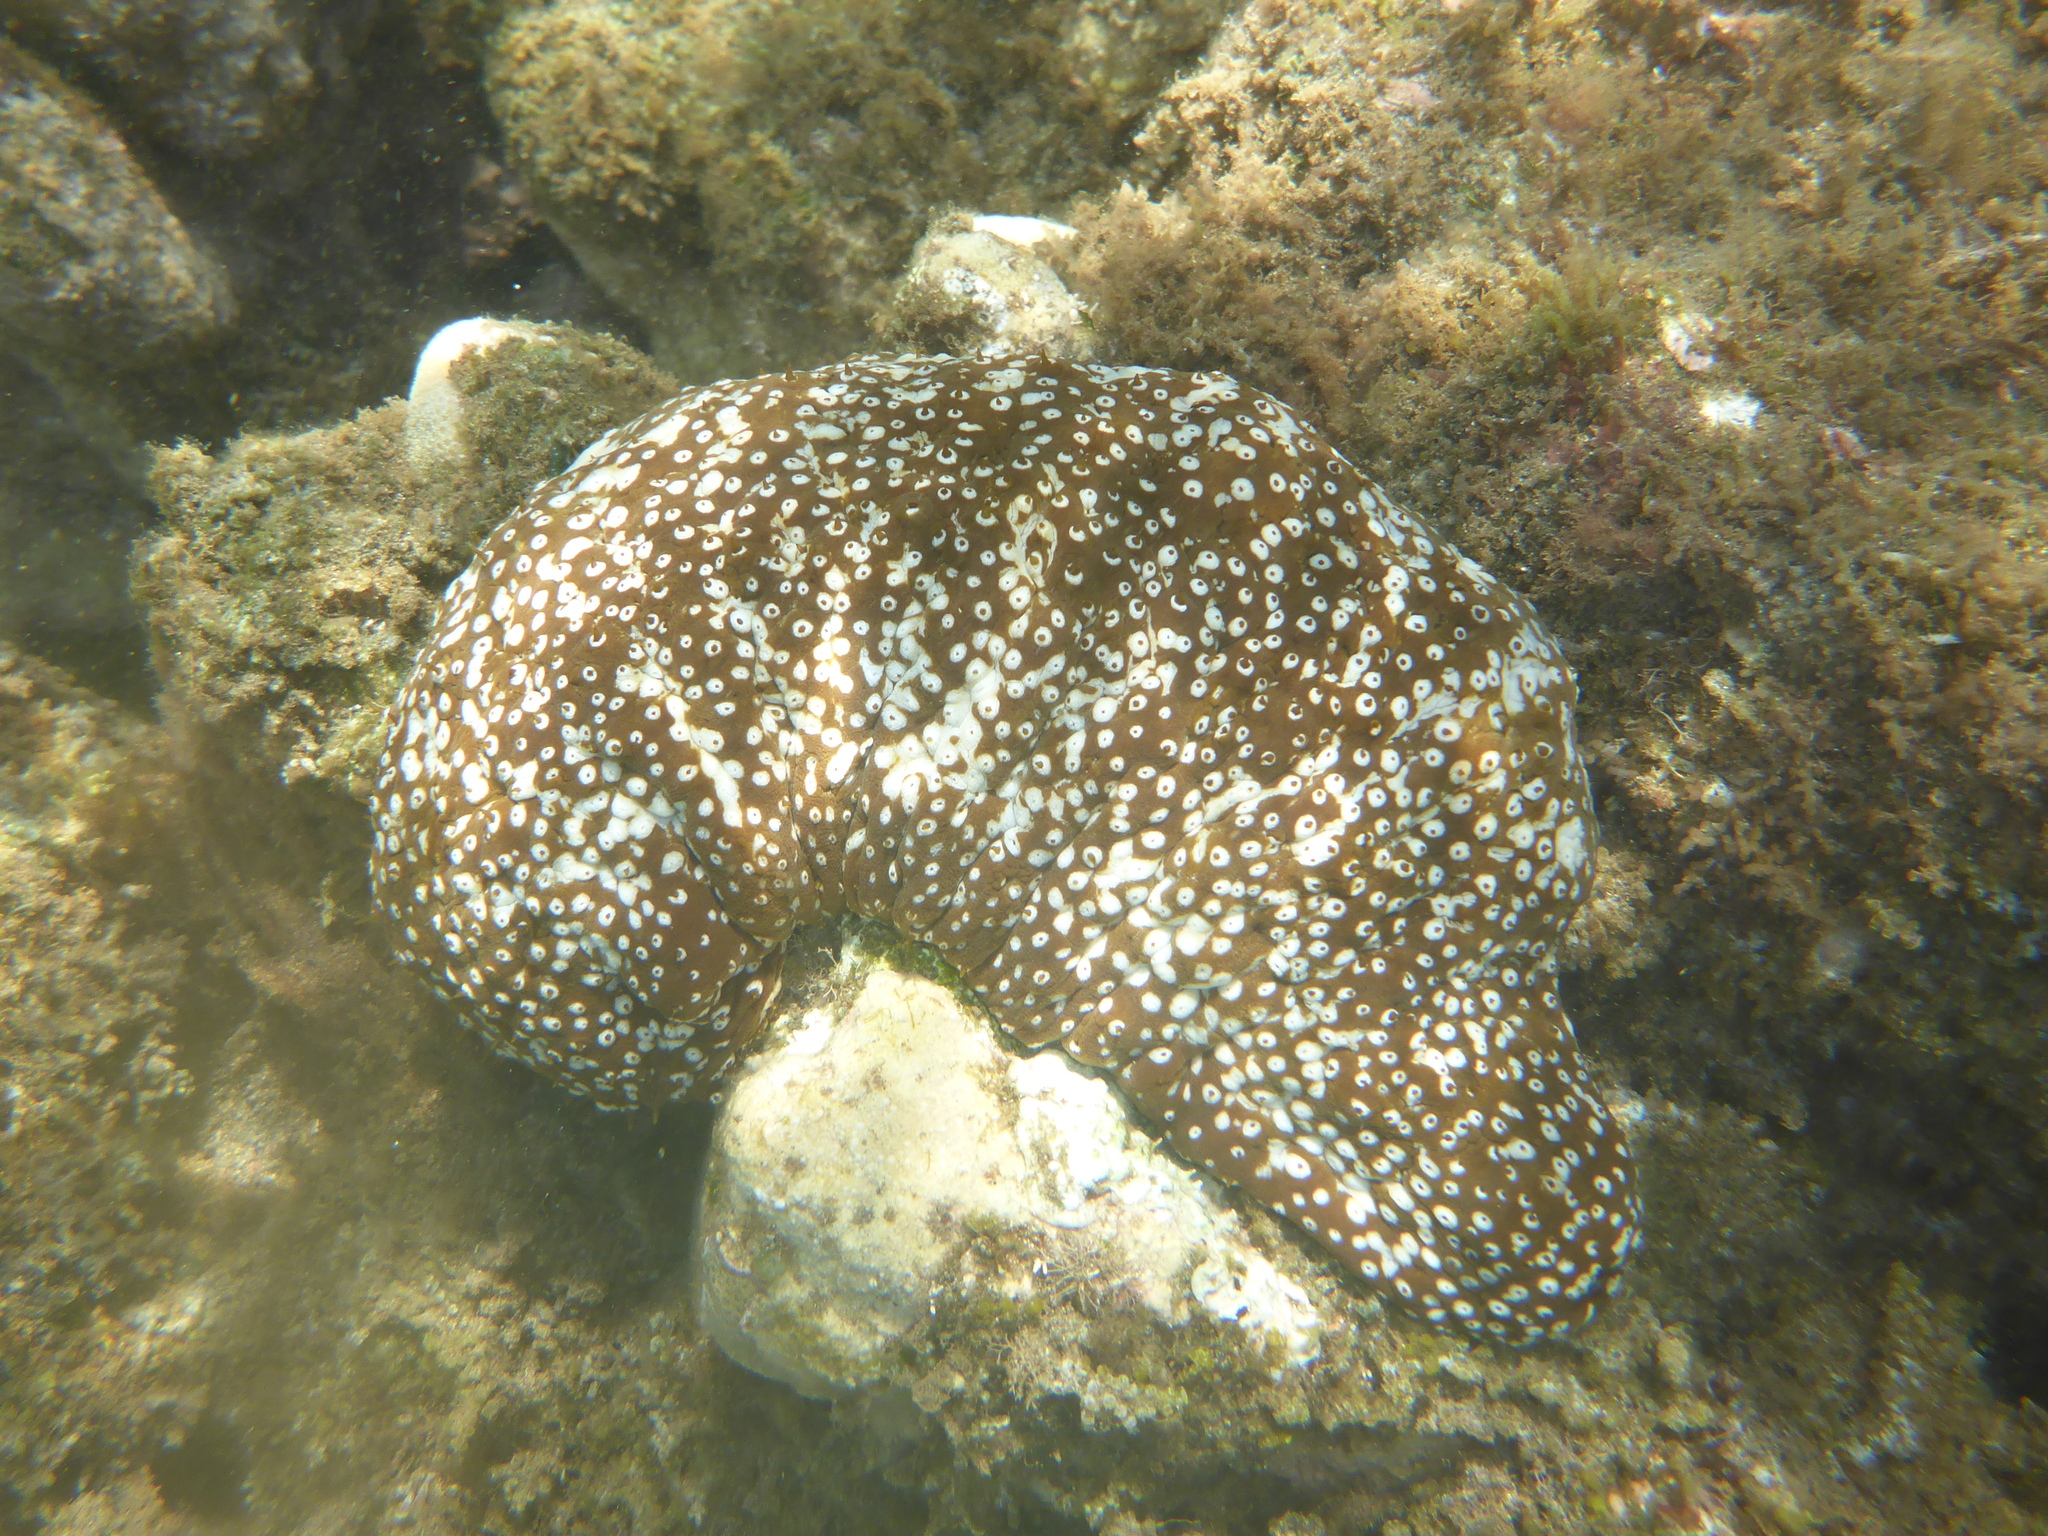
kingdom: Animalia
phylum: Echinodermata
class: Holothuroidea
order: Holothuriida
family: Holothuriidae
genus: Actinopyga
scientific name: Actinopyga varians
